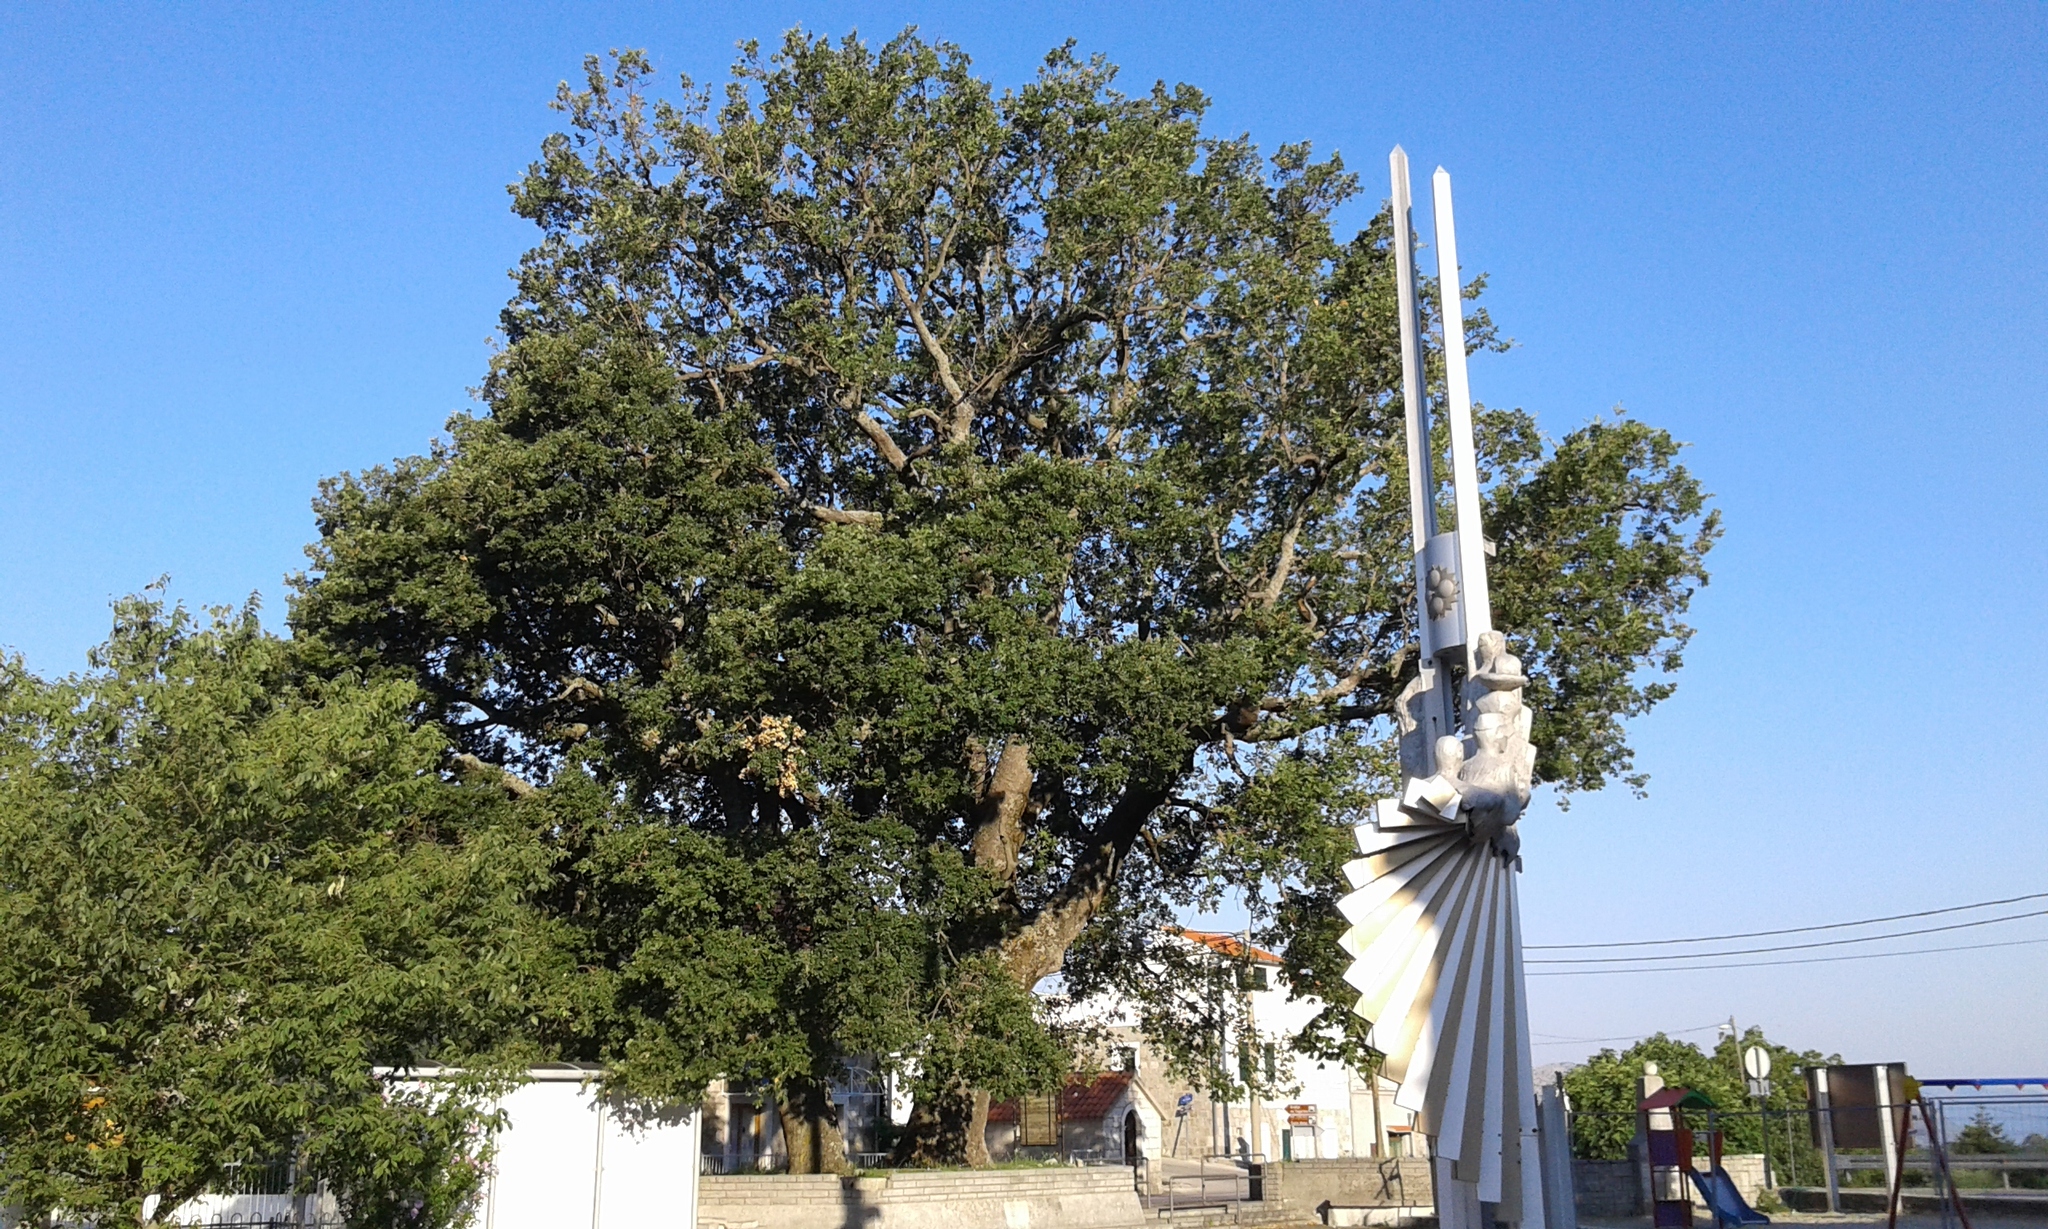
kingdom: Plantae
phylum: Tracheophyta
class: Magnoliopsida
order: Fagales
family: Fagaceae
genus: Quercus
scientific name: Quercus pubescens
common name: Downy oak
